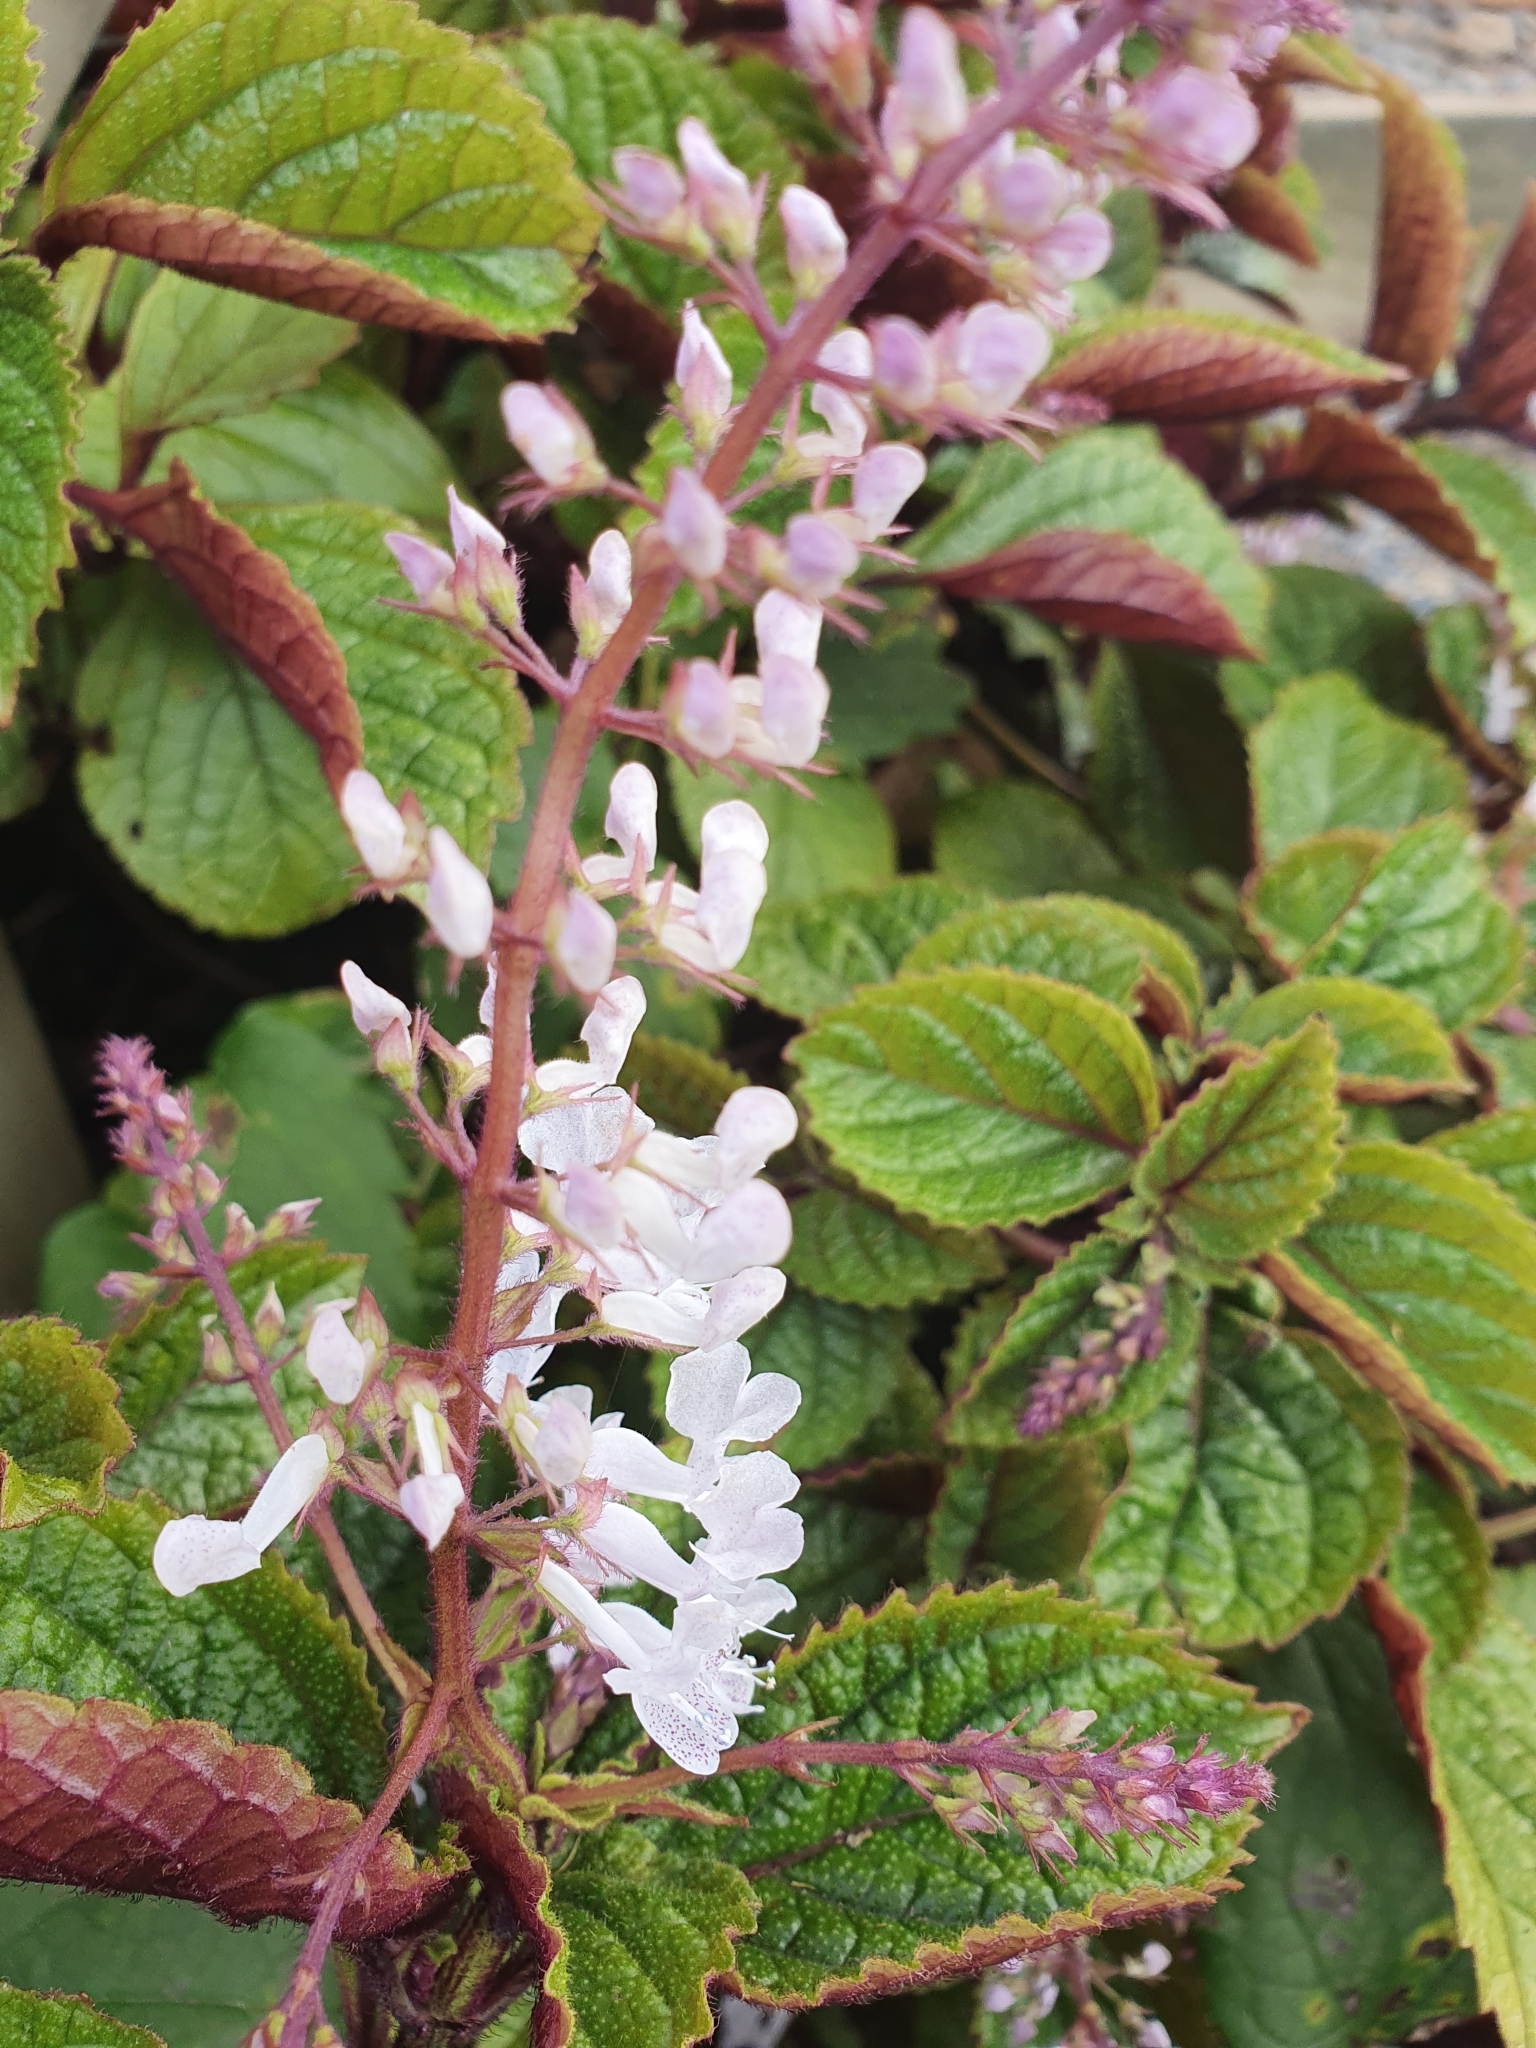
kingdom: Plantae
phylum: Tracheophyta
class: Magnoliopsida
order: Lamiales
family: Lamiaceae
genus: Plectranthus
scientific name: Plectranthus ciliatus
